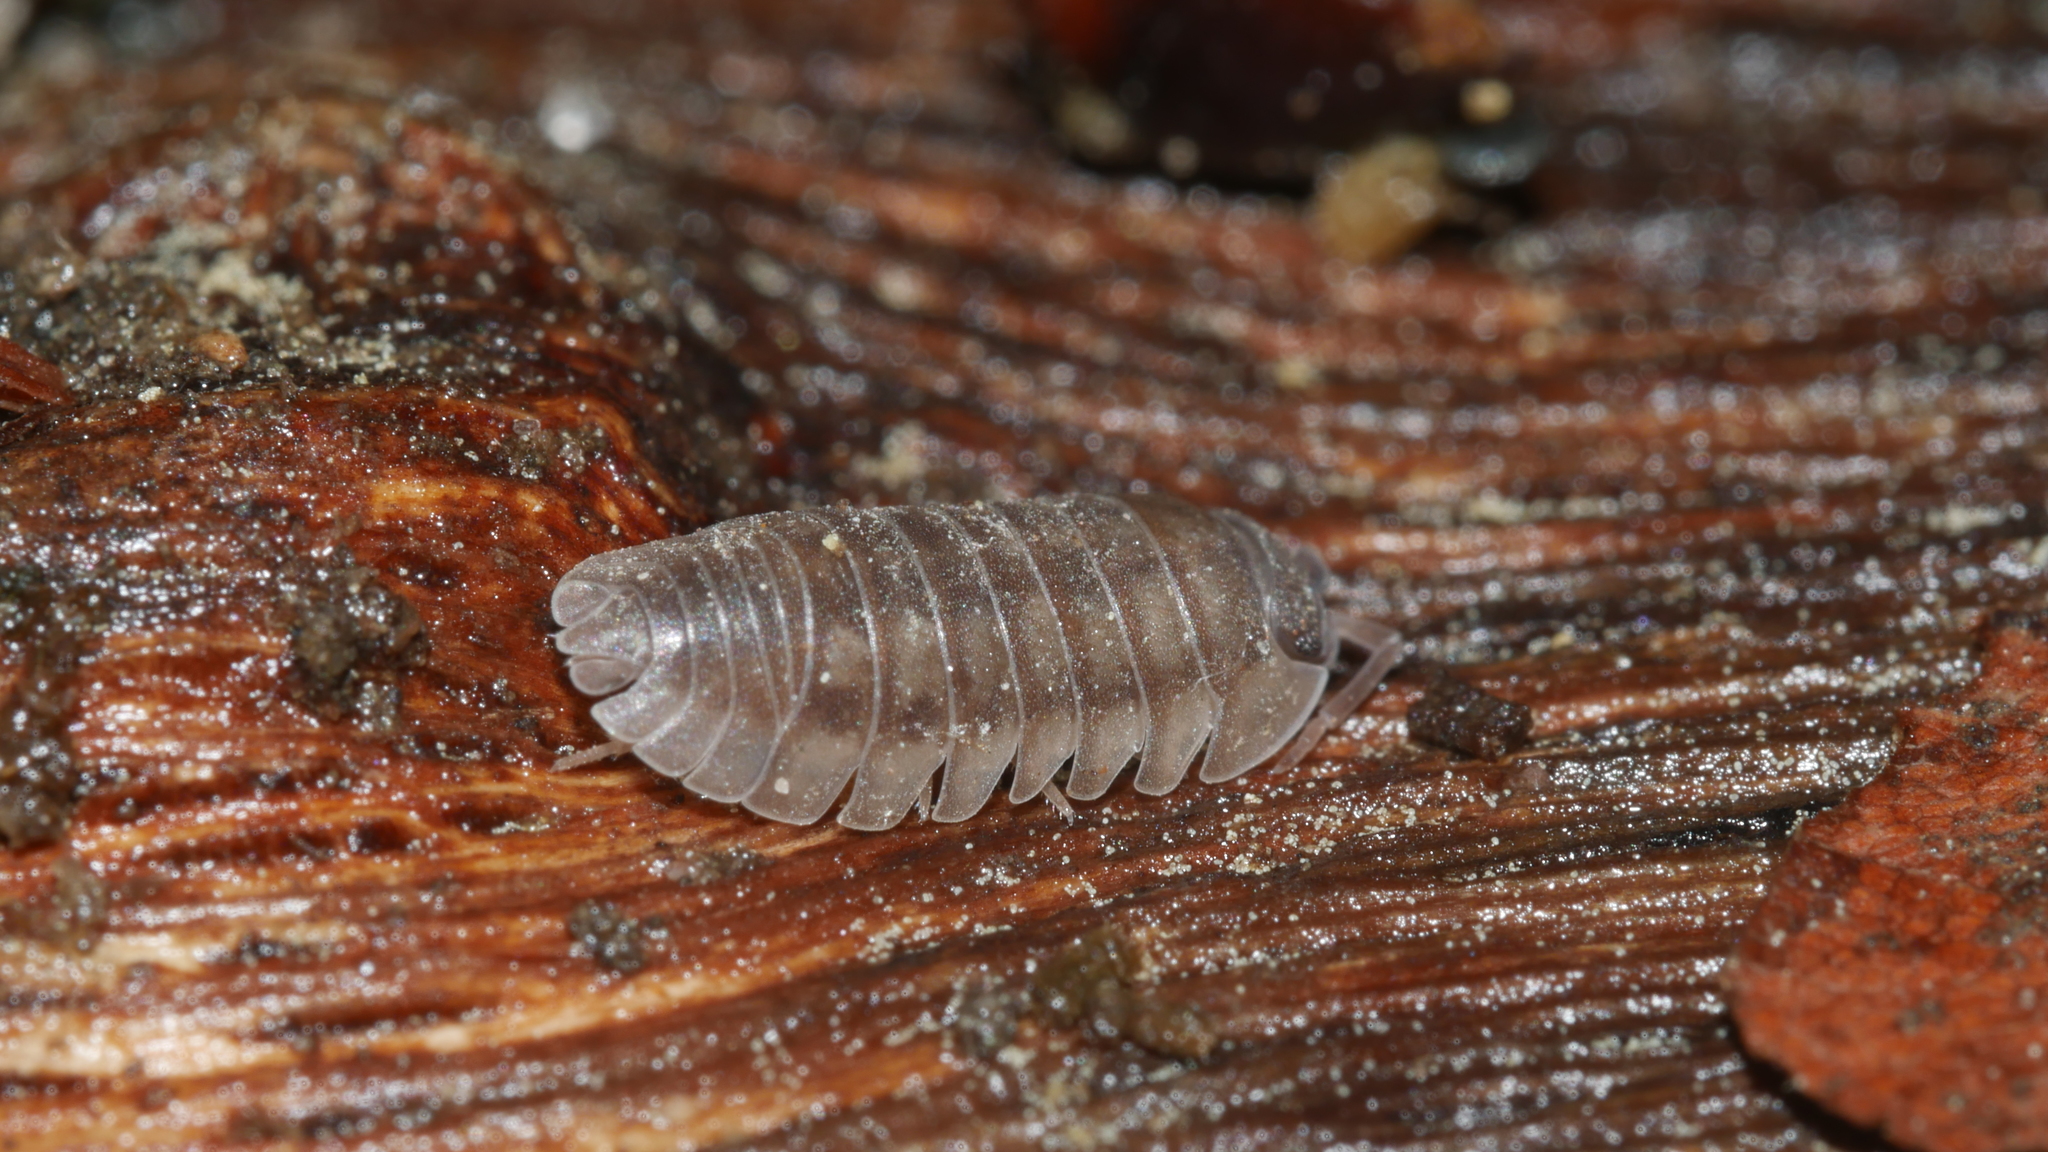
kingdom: Animalia
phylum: Arthropoda
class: Malacostraca
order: Isopoda
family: Armadillidiidae
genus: Armadillidium
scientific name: Armadillidium nasatum
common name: Isopod
